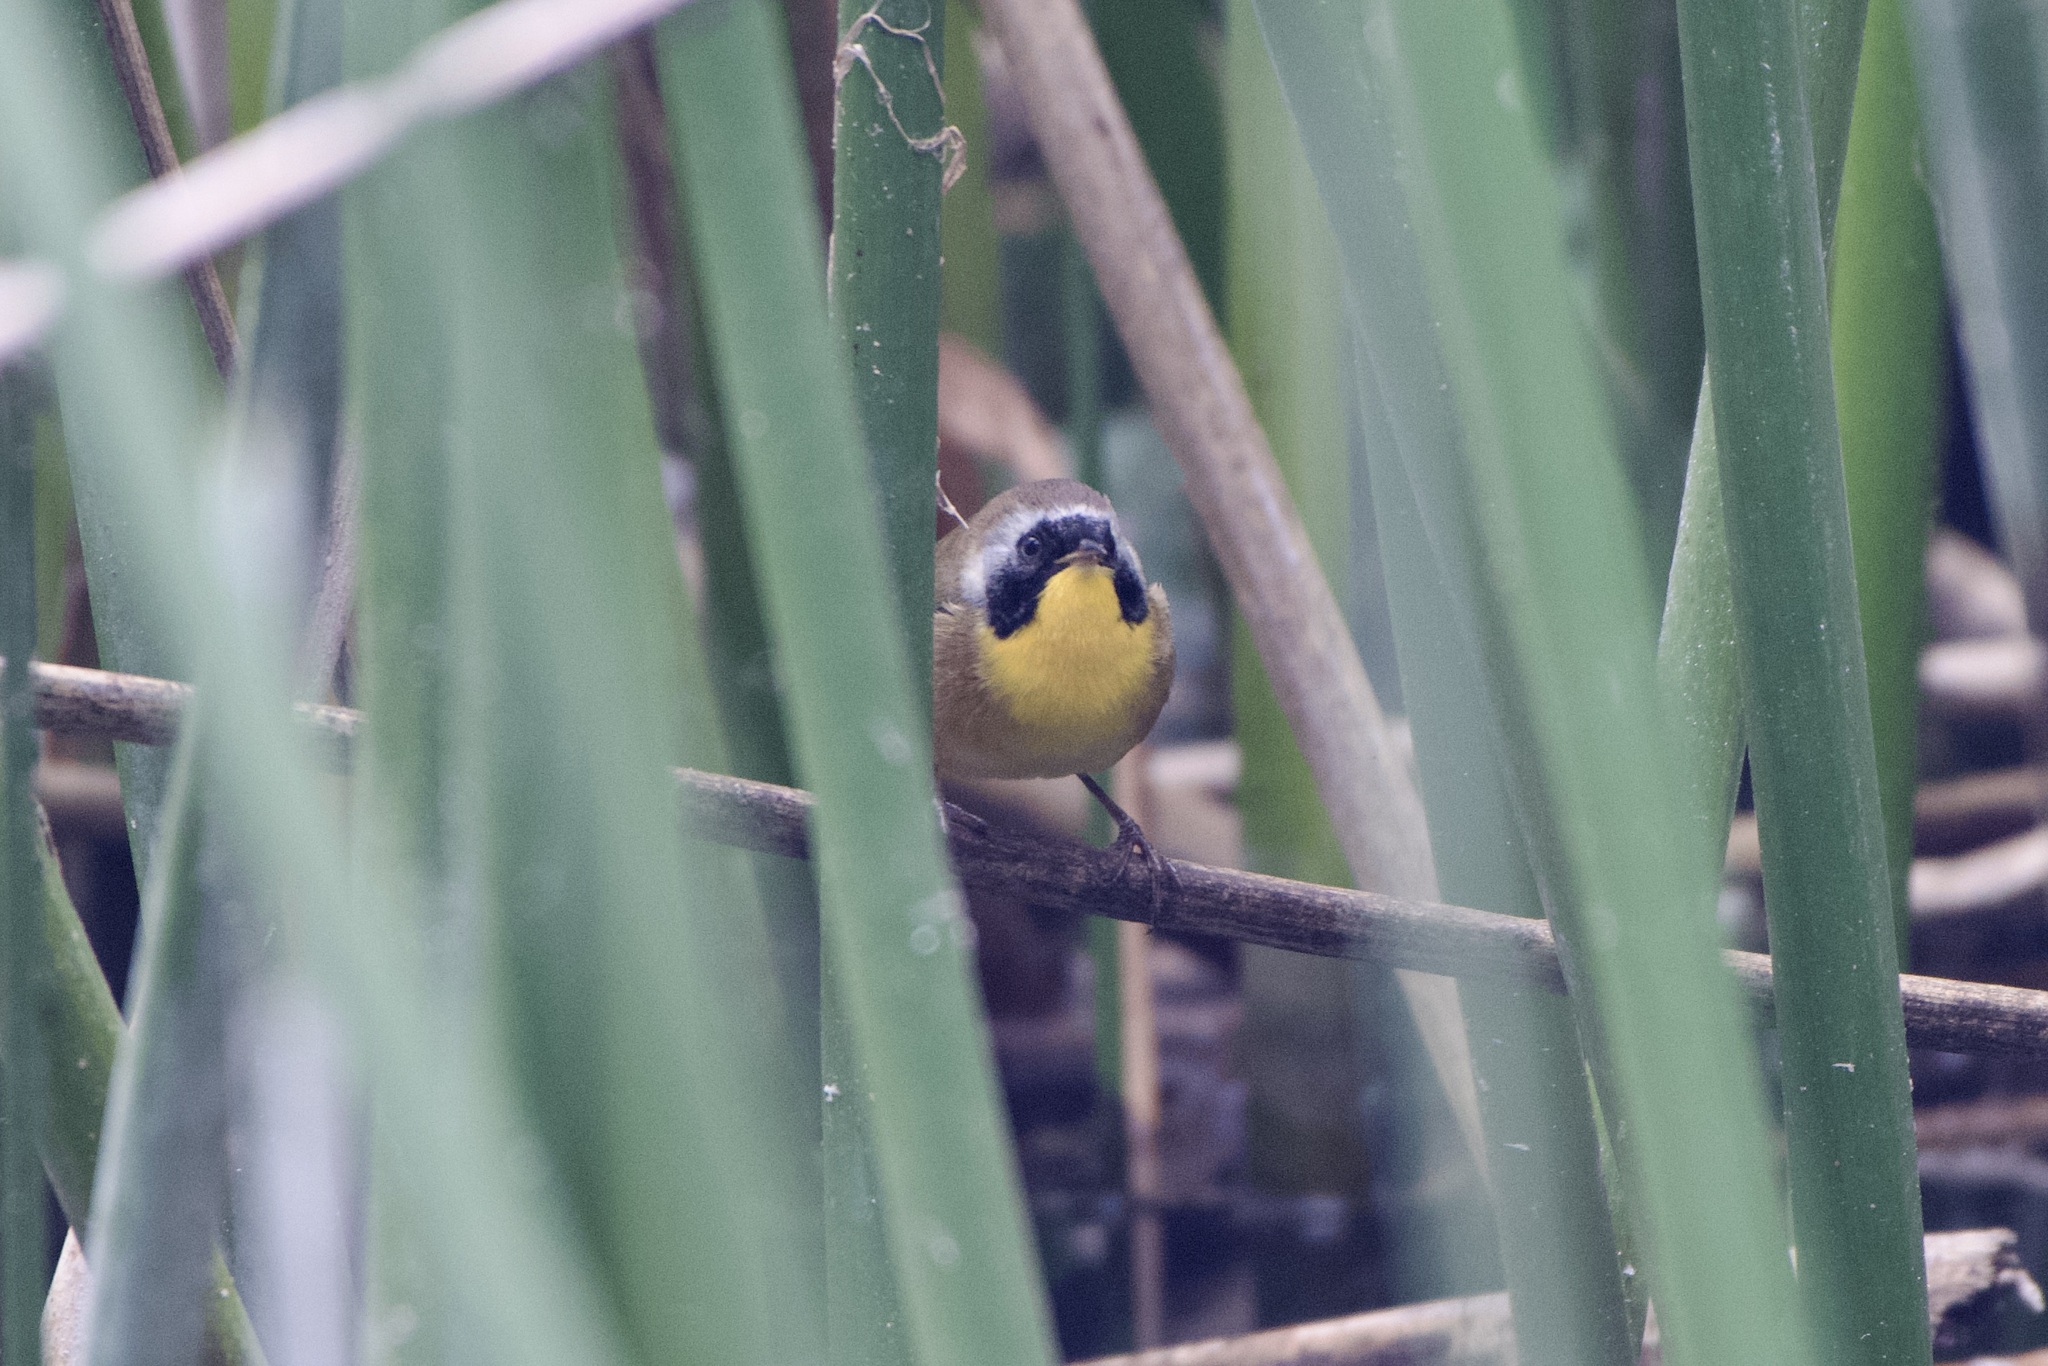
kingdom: Animalia
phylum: Chordata
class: Aves
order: Passeriformes
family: Parulidae
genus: Geothlypis
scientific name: Geothlypis trichas
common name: Common yellowthroat
